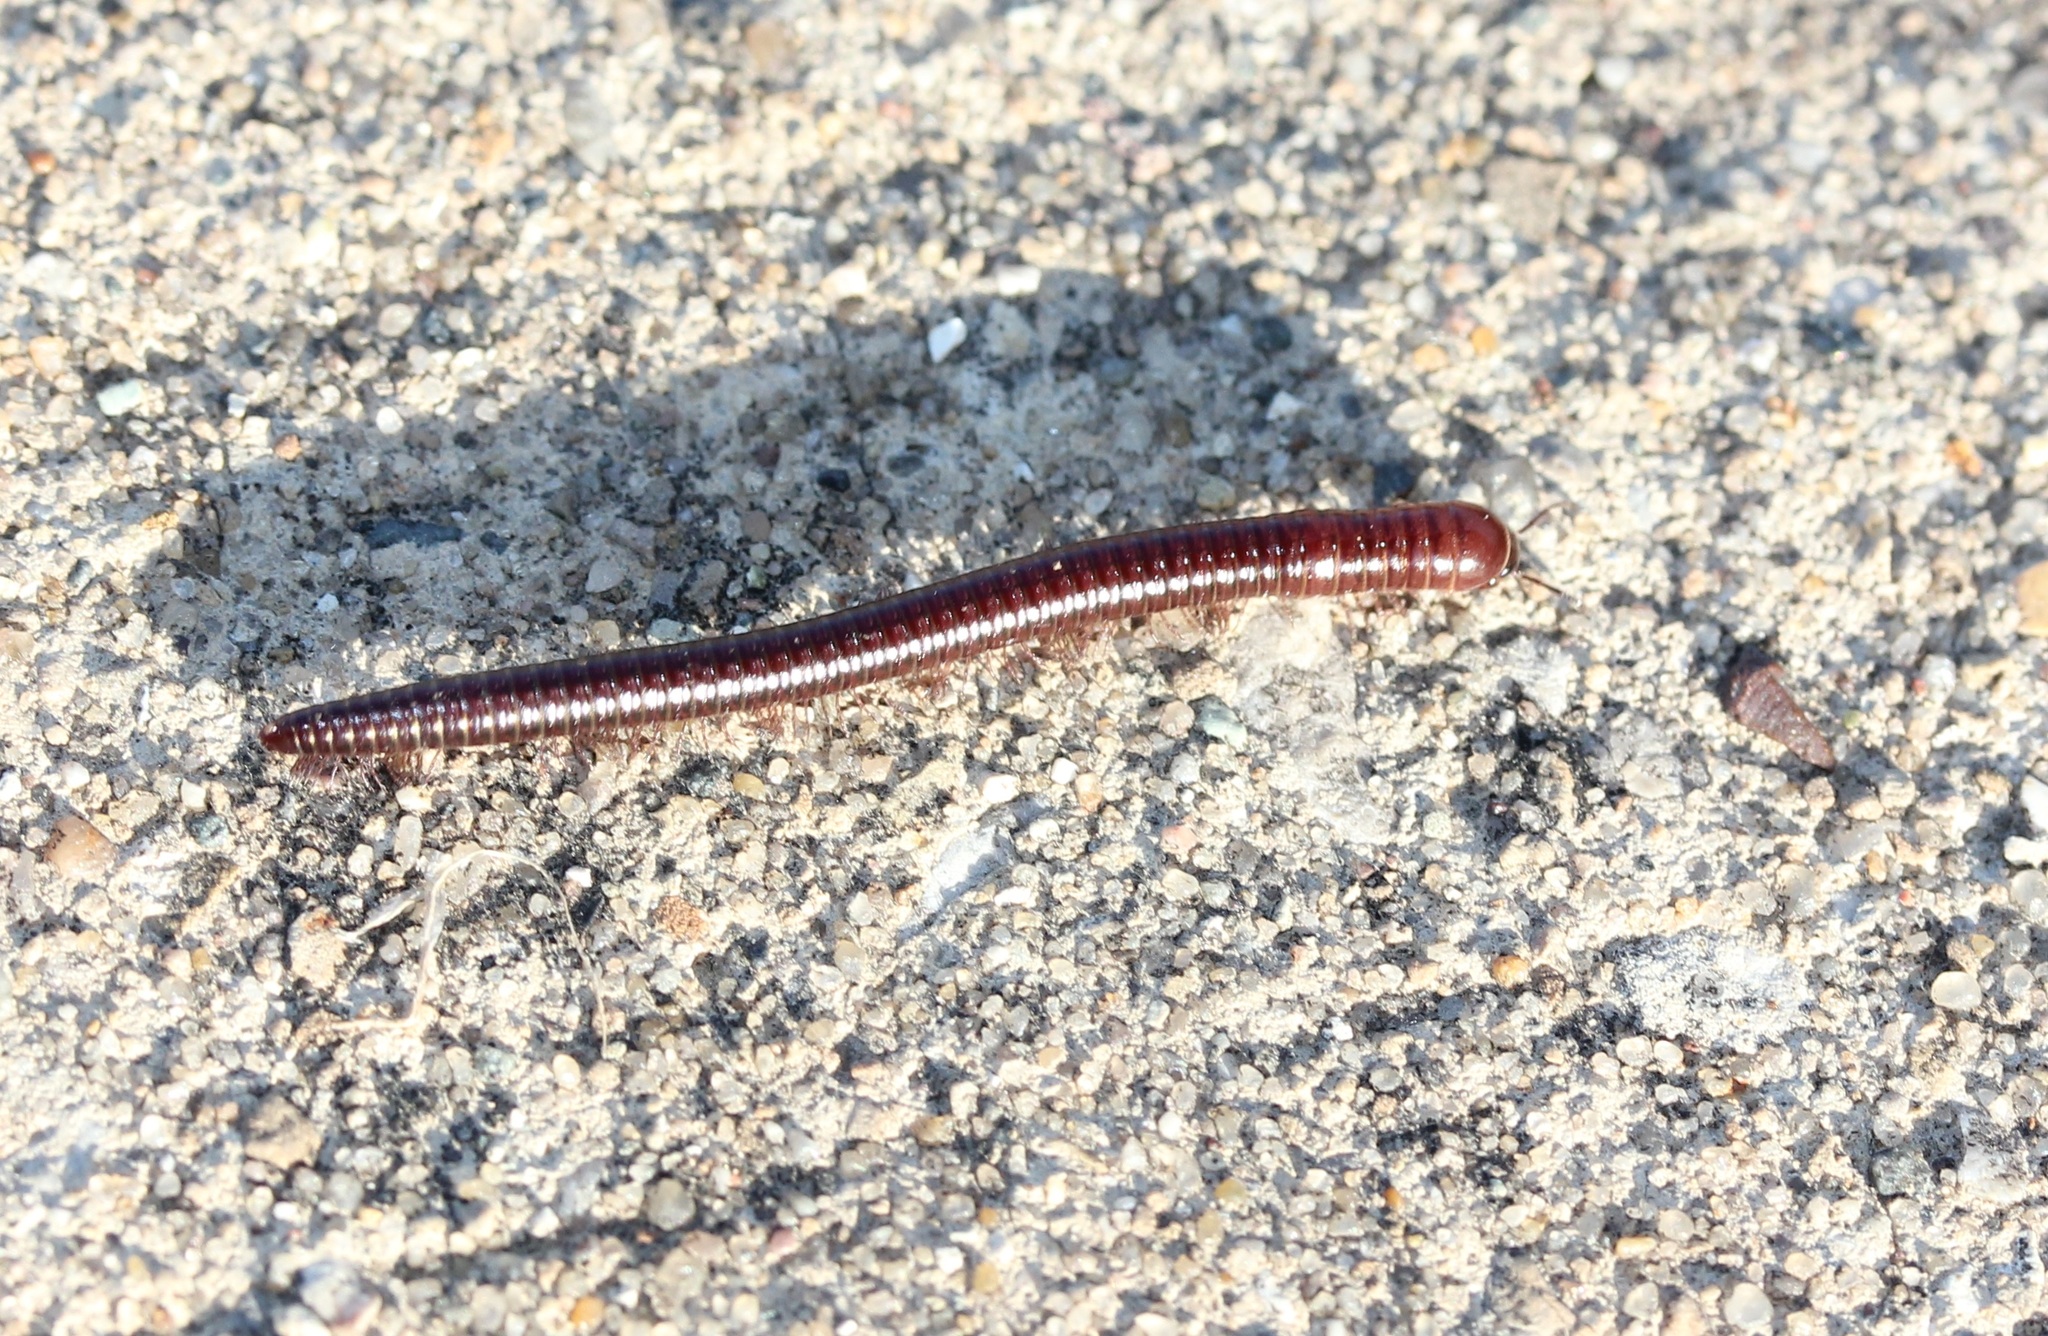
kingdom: Animalia
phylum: Arthropoda
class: Diplopoda
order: Julida
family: Parajulidae
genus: Aniulus
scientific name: Aniulus garius
